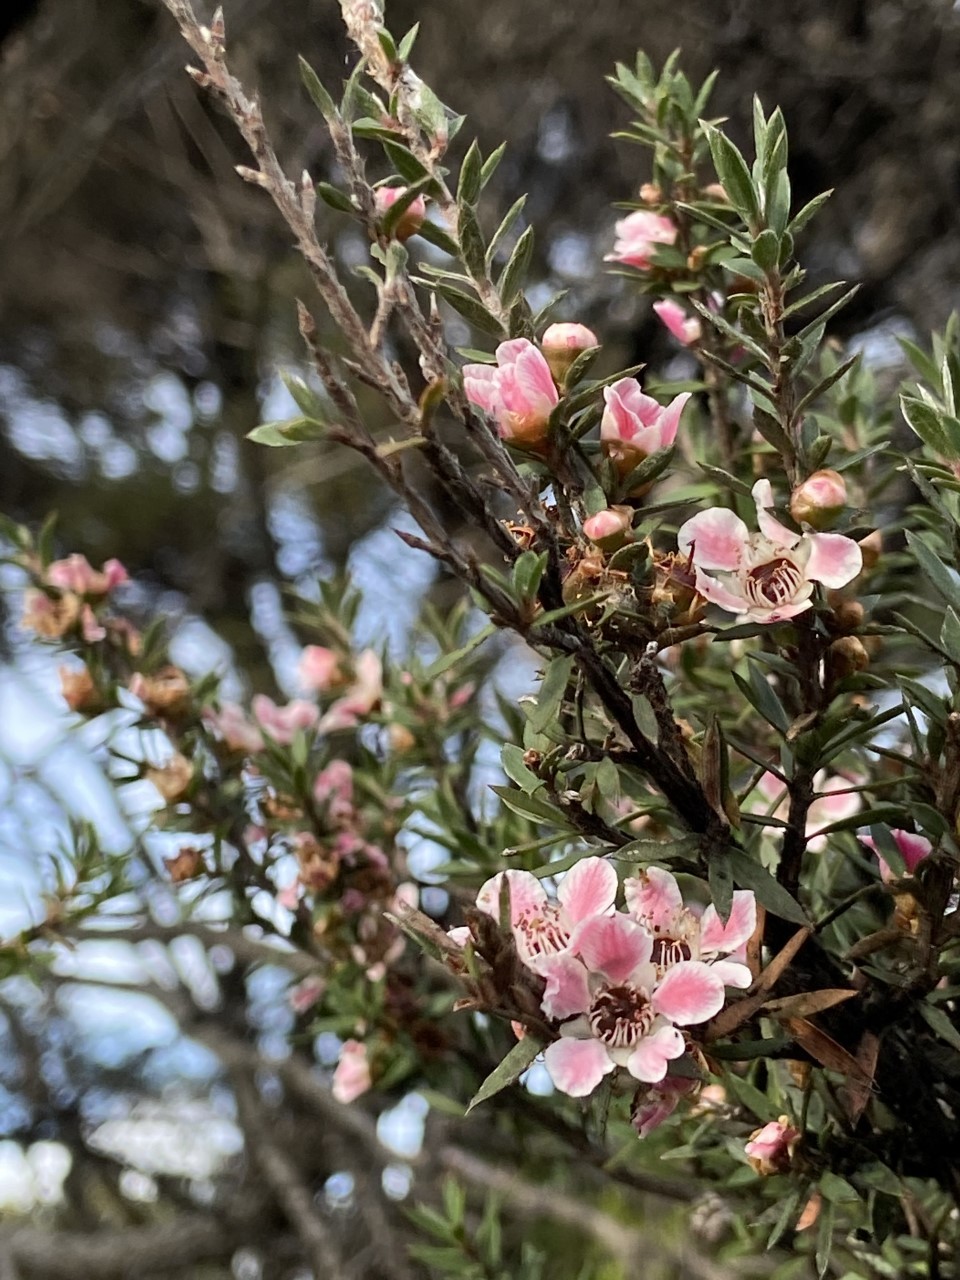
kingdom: Plantae
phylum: Tracheophyta
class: Magnoliopsida
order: Myrtales
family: Myrtaceae
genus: Leptospermum
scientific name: Leptospermum scoparium
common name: Broom tea-tree
